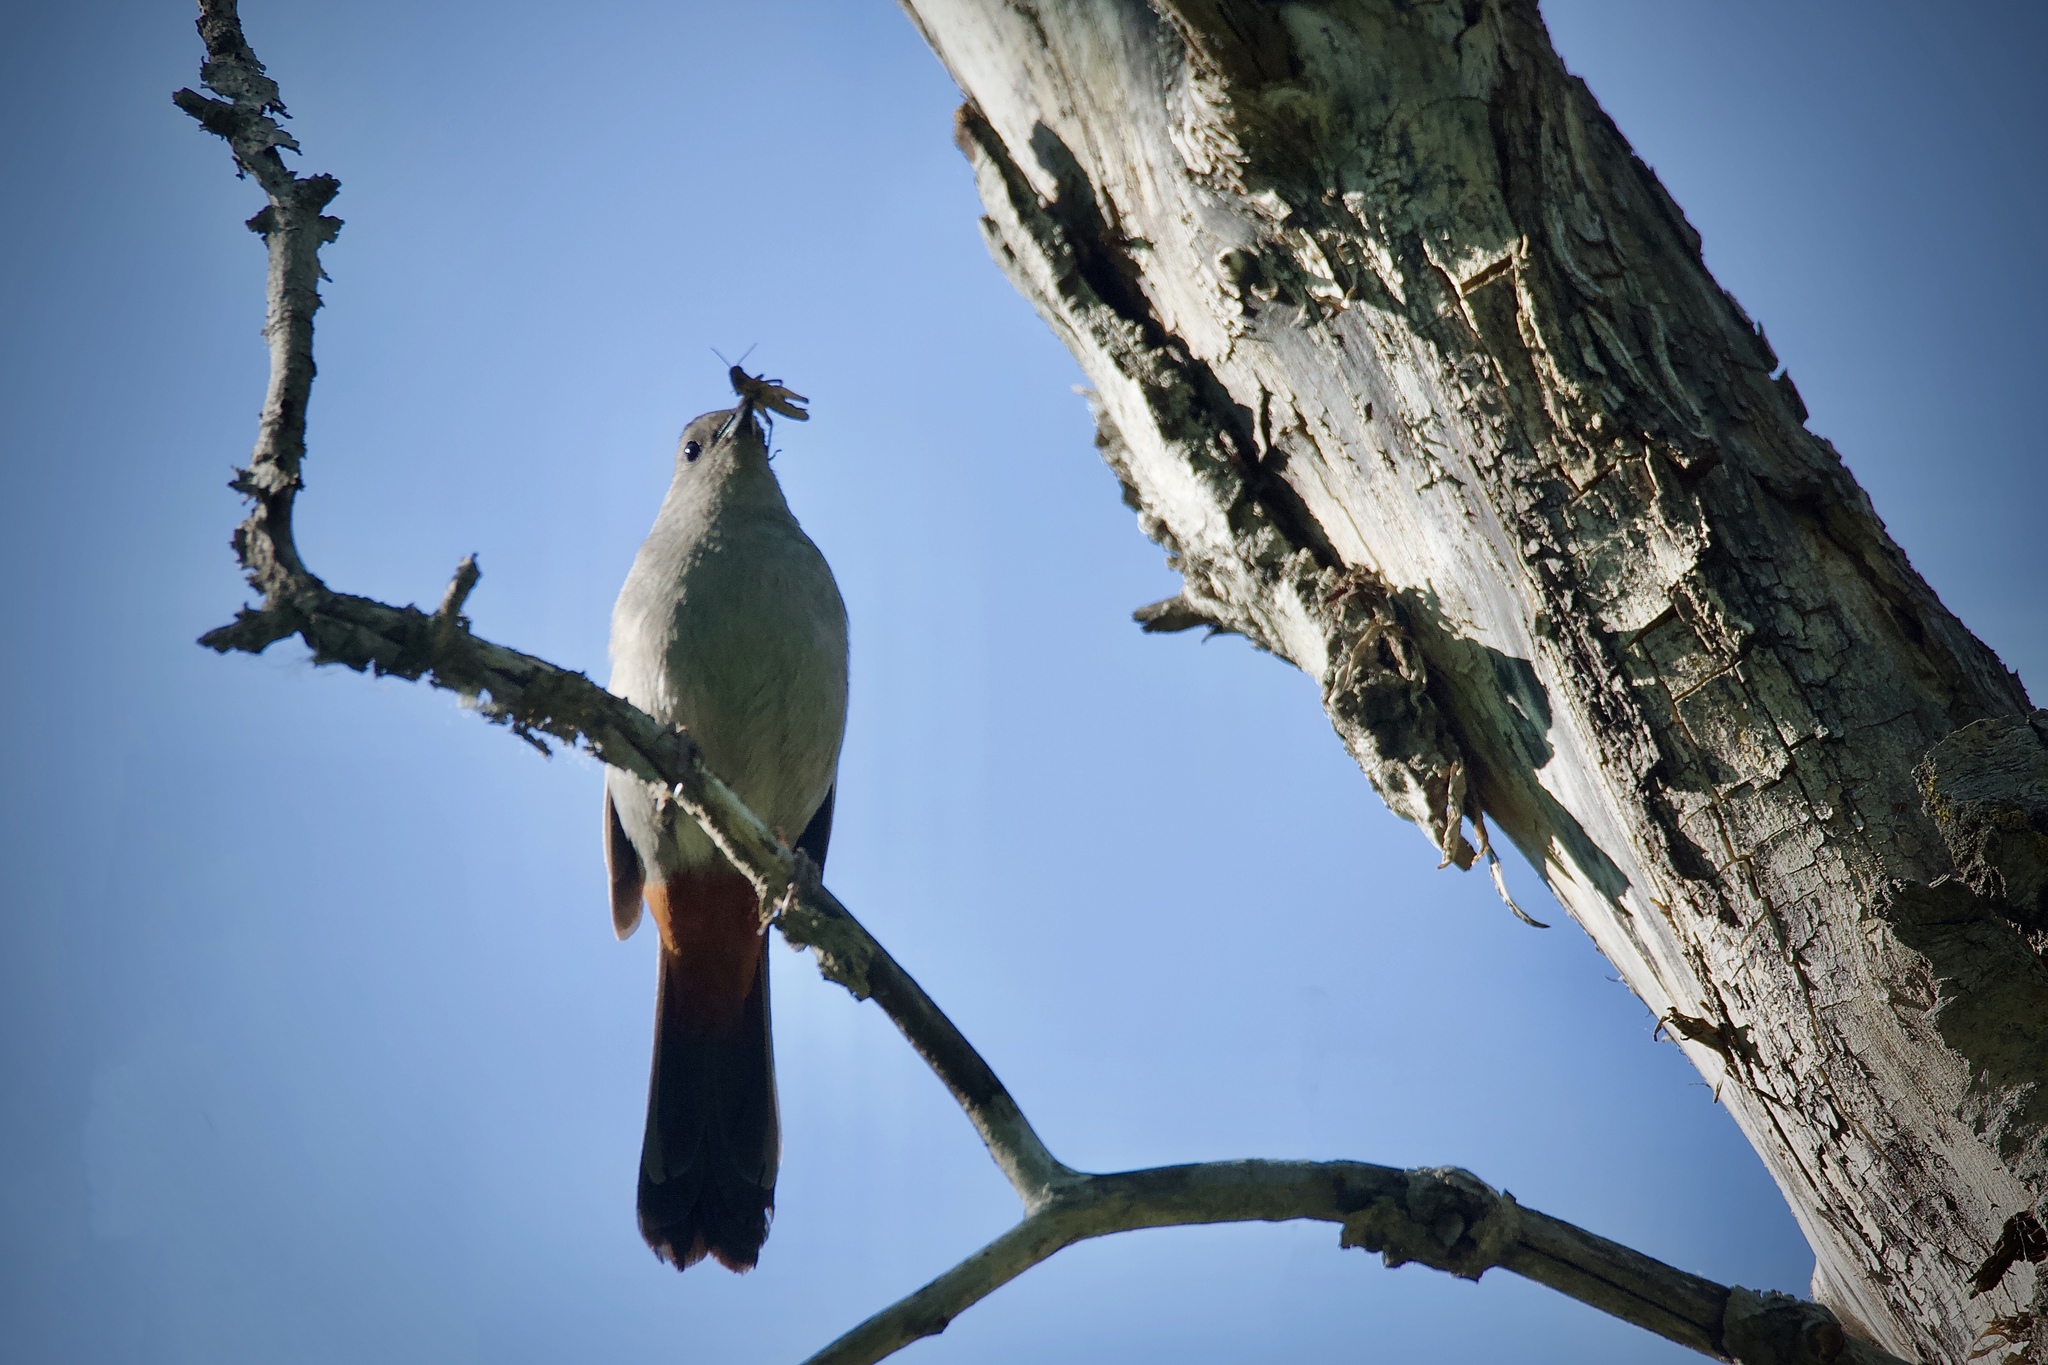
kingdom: Animalia
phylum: Chordata
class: Aves
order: Passeriformes
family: Mimidae
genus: Dumetella
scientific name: Dumetella carolinensis
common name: Gray catbird
